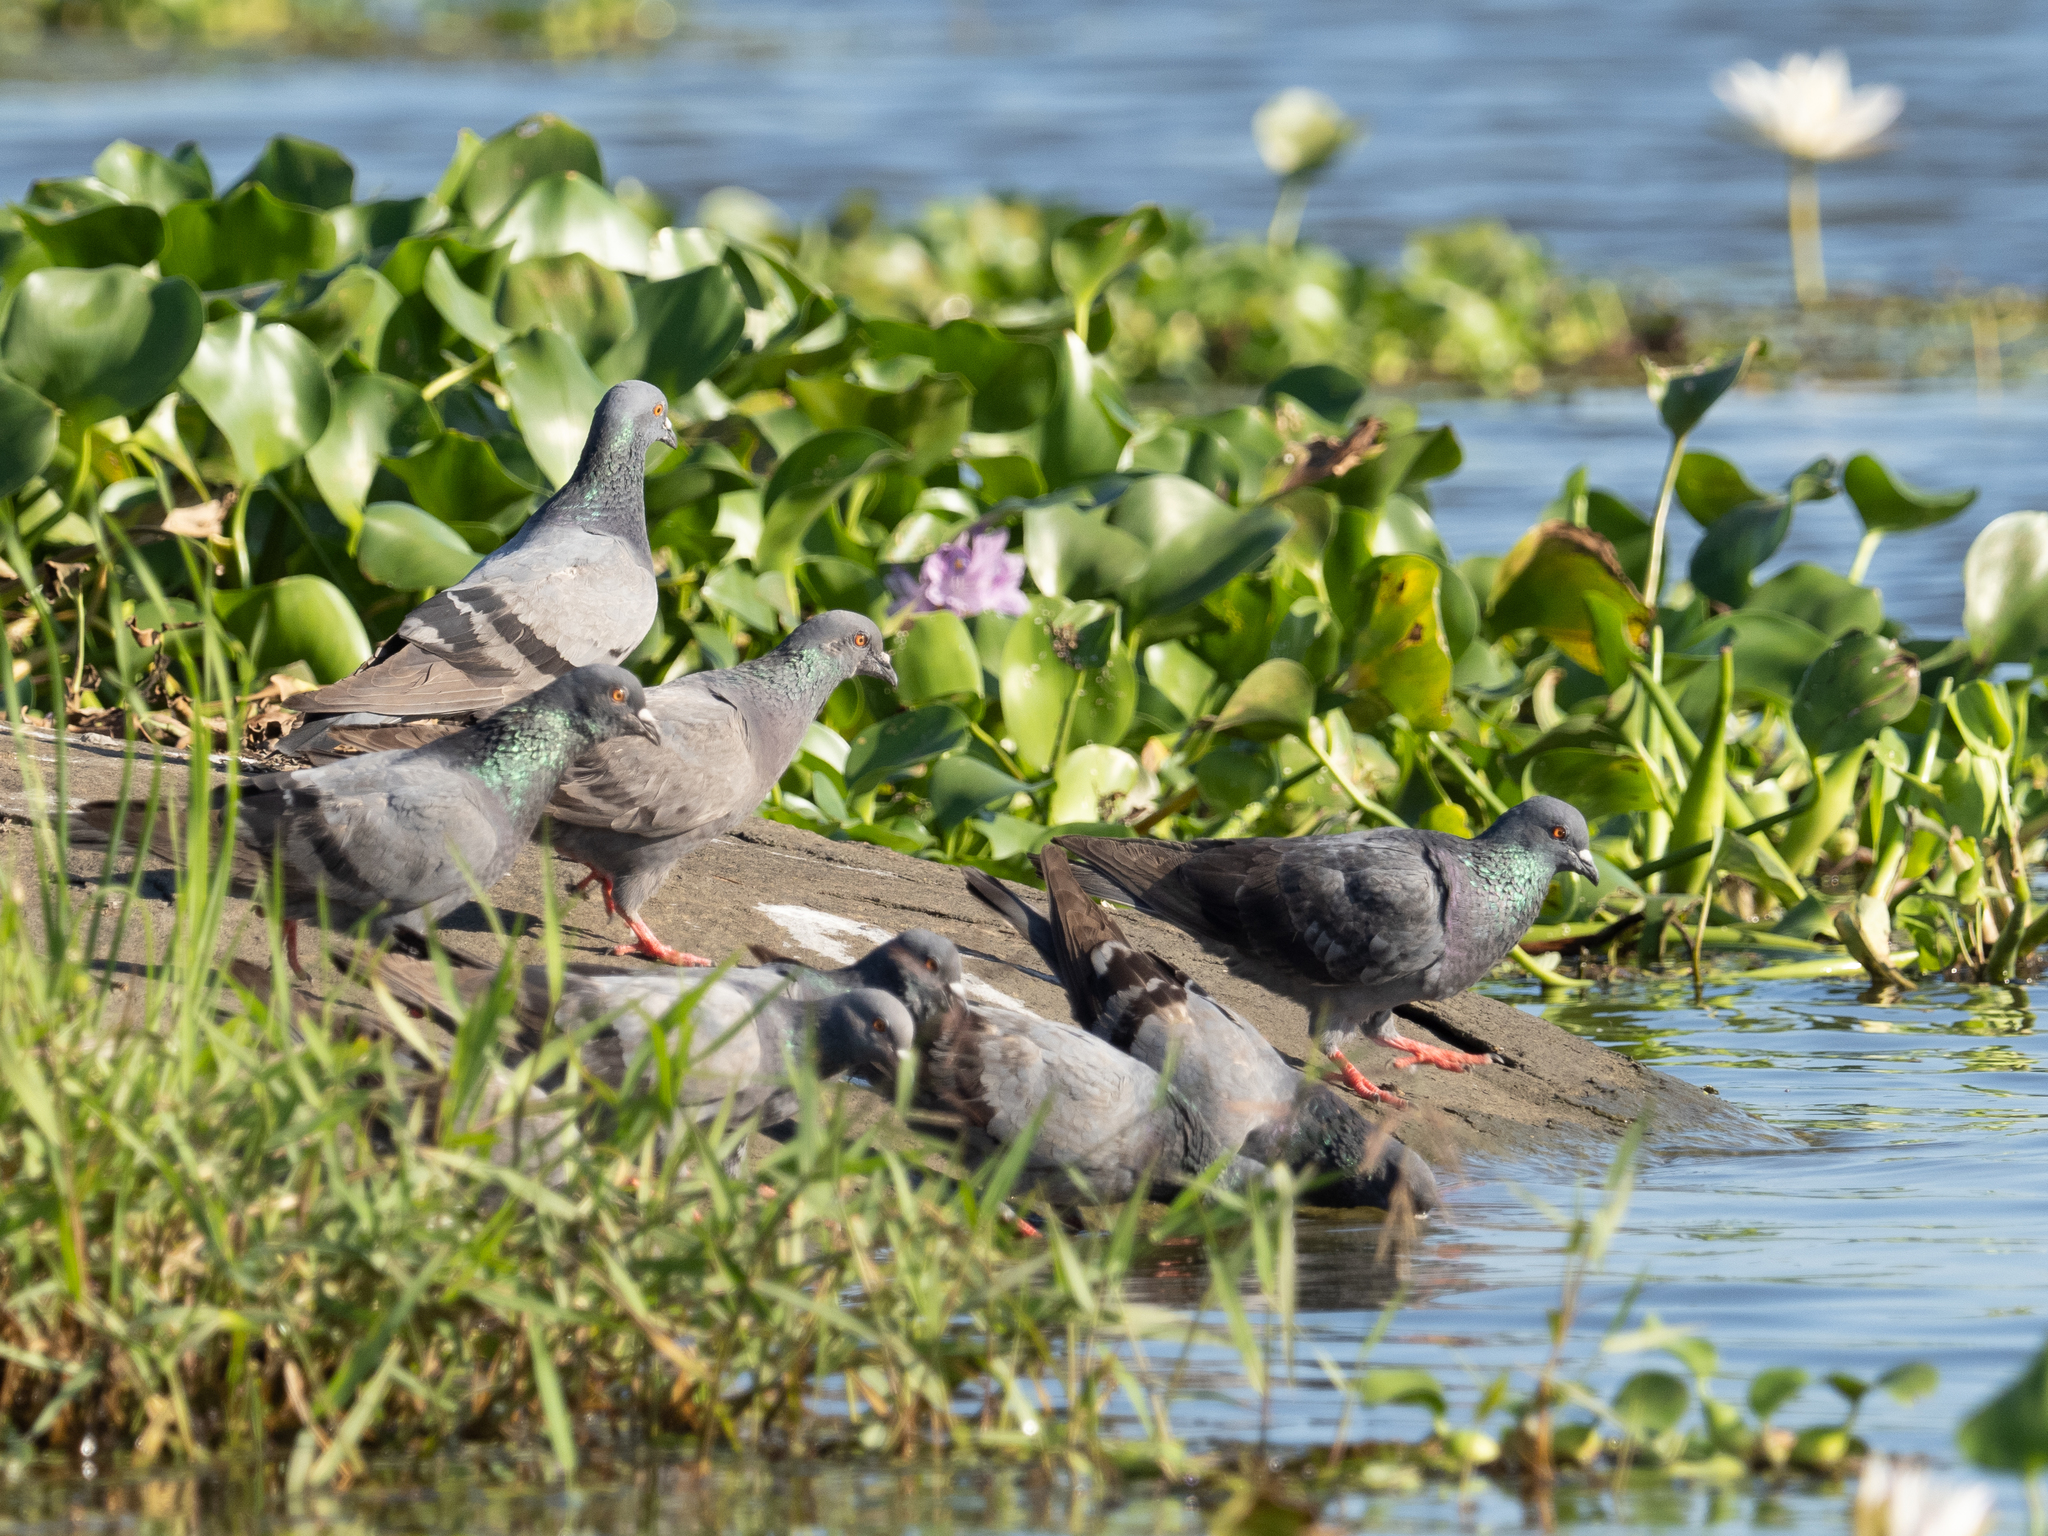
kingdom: Animalia
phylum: Chordata
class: Aves
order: Columbiformes
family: Columbidae
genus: Columba
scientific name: Columba livia
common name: Rock pigeon
